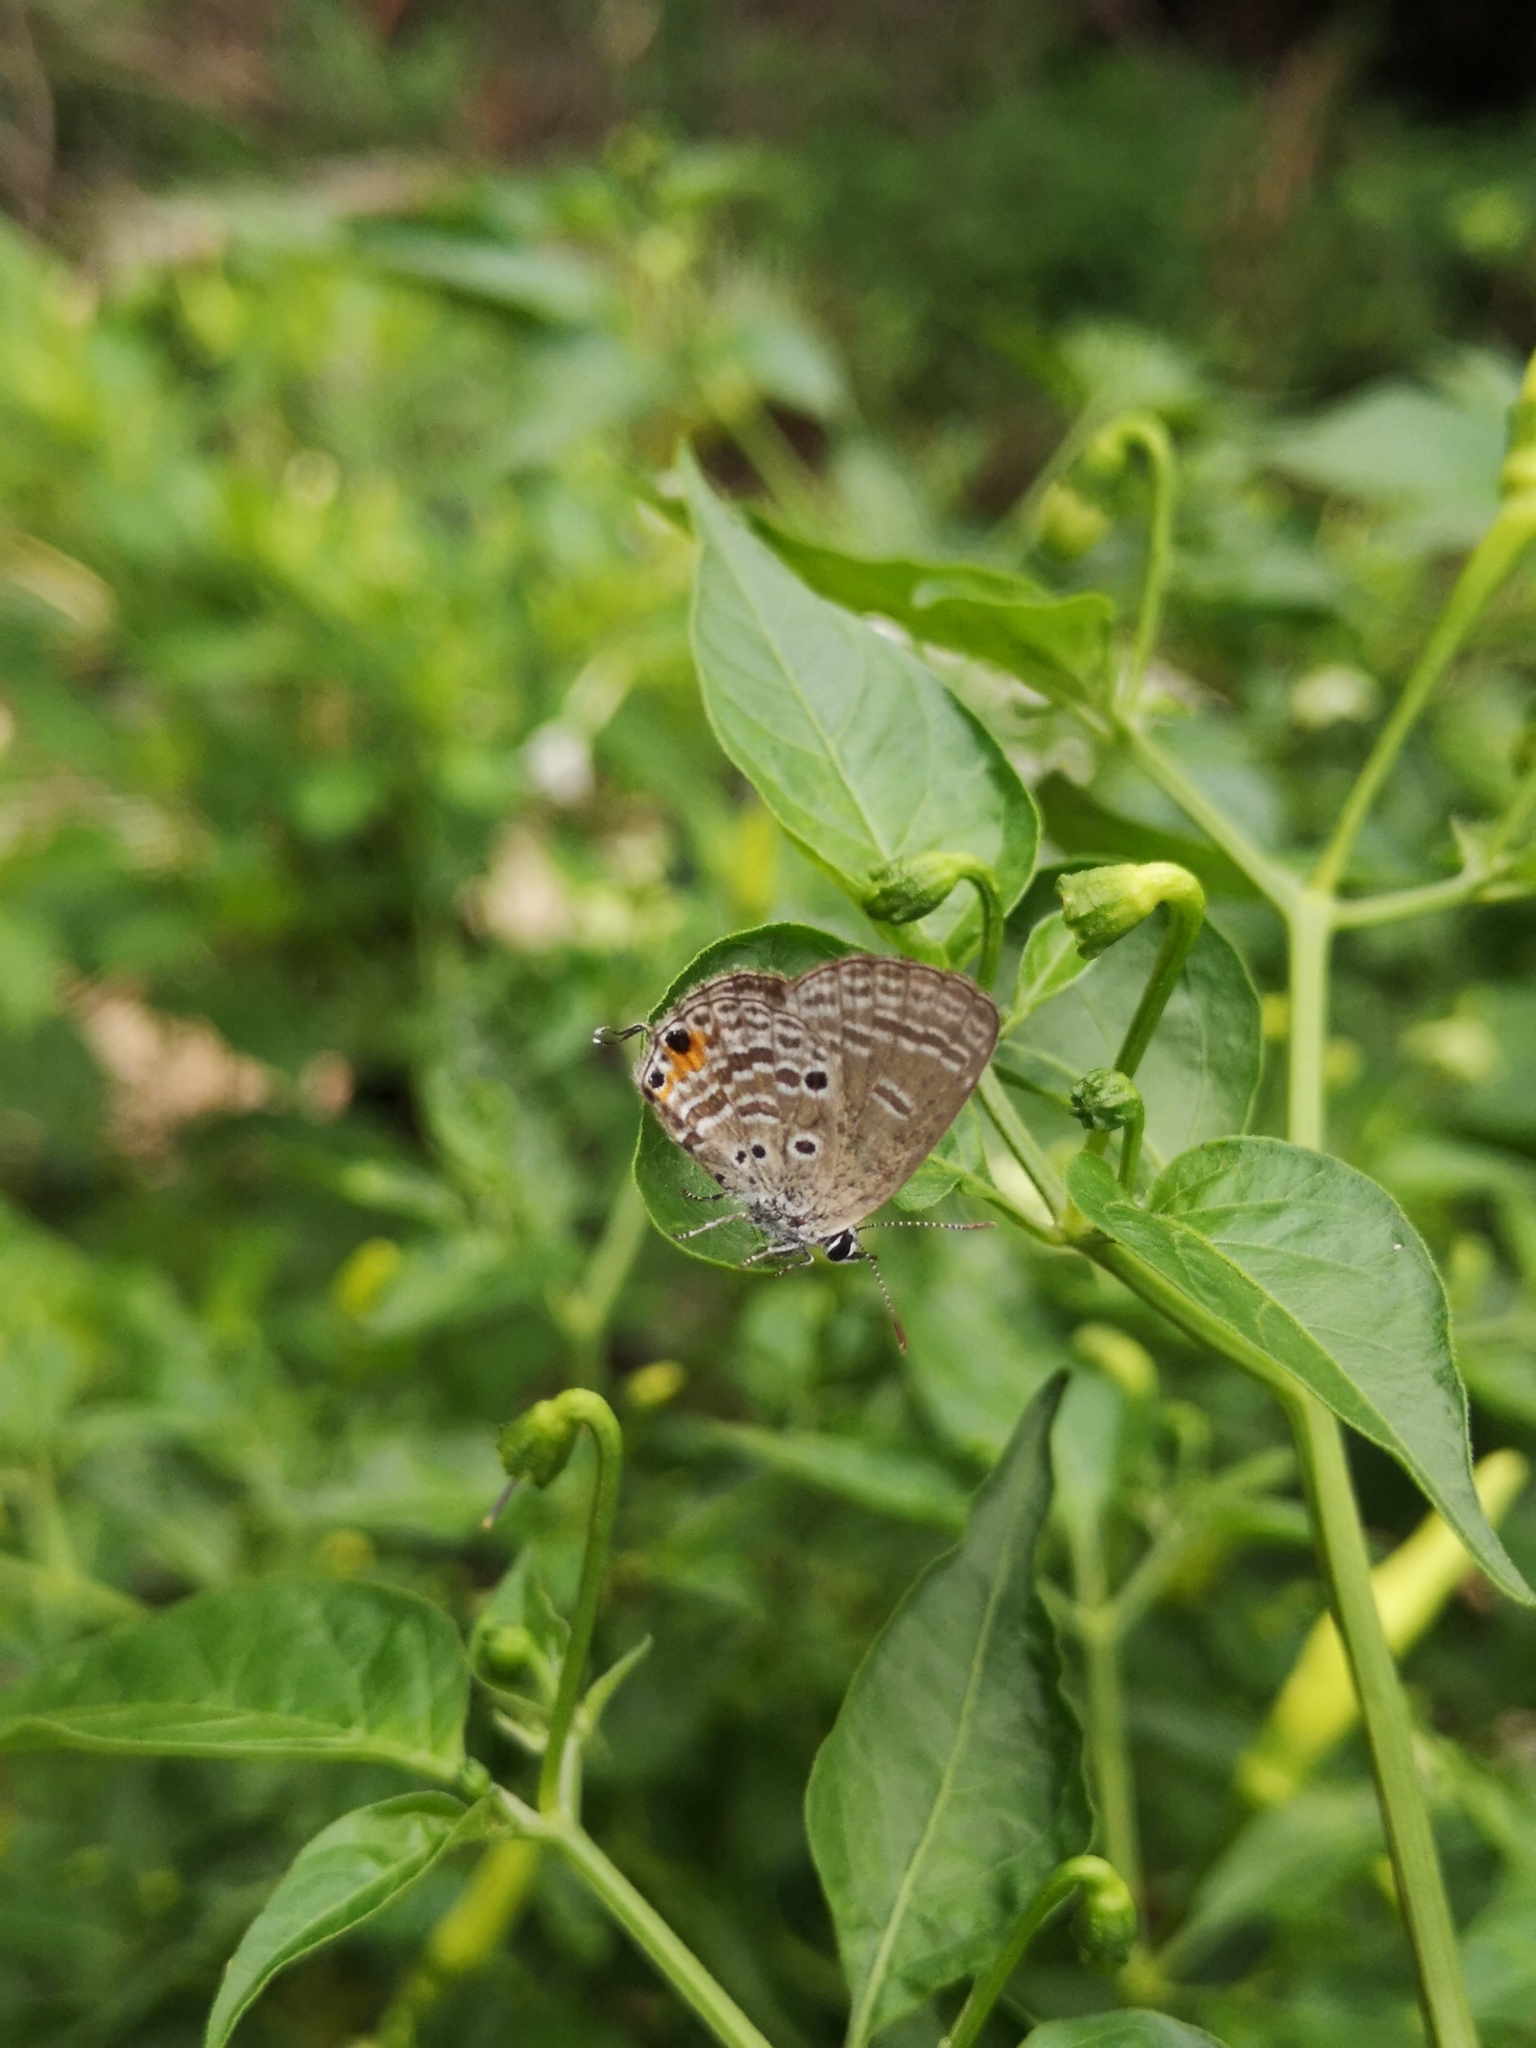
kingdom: Animalia
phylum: Arthropoda
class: Insecta
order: Lepidoptera
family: Lycaenidae
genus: Luthrodes
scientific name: Luthrodes pandava
